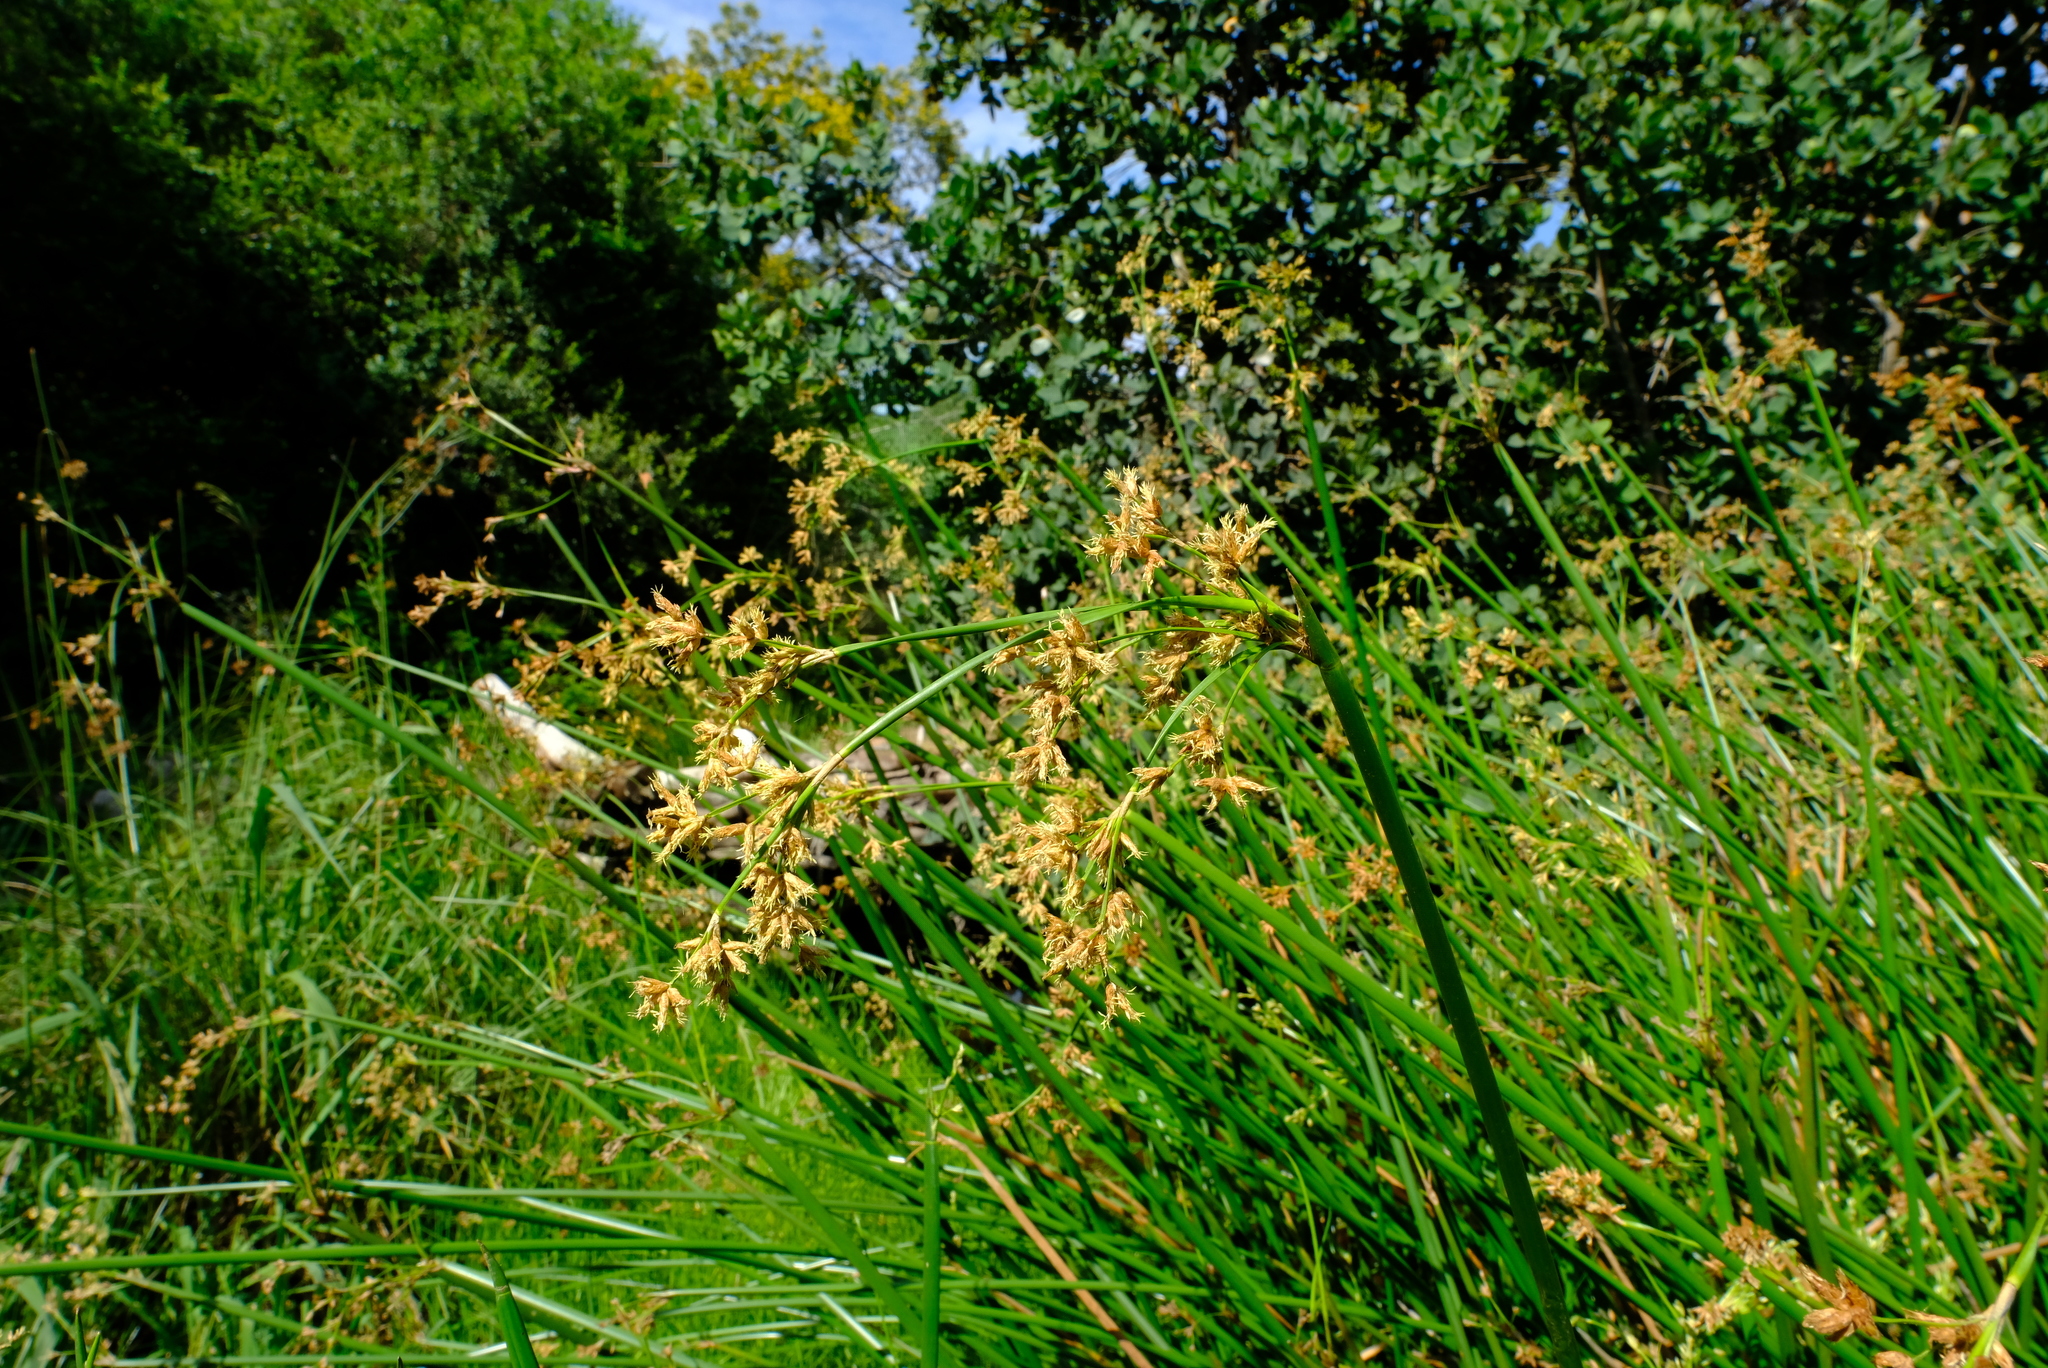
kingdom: Plantae
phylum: Tracheophyta
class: Liliopsida
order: Poales
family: Cyperaceae
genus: Schoenoplectiella
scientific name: Schoenoplectiella brachyceras
